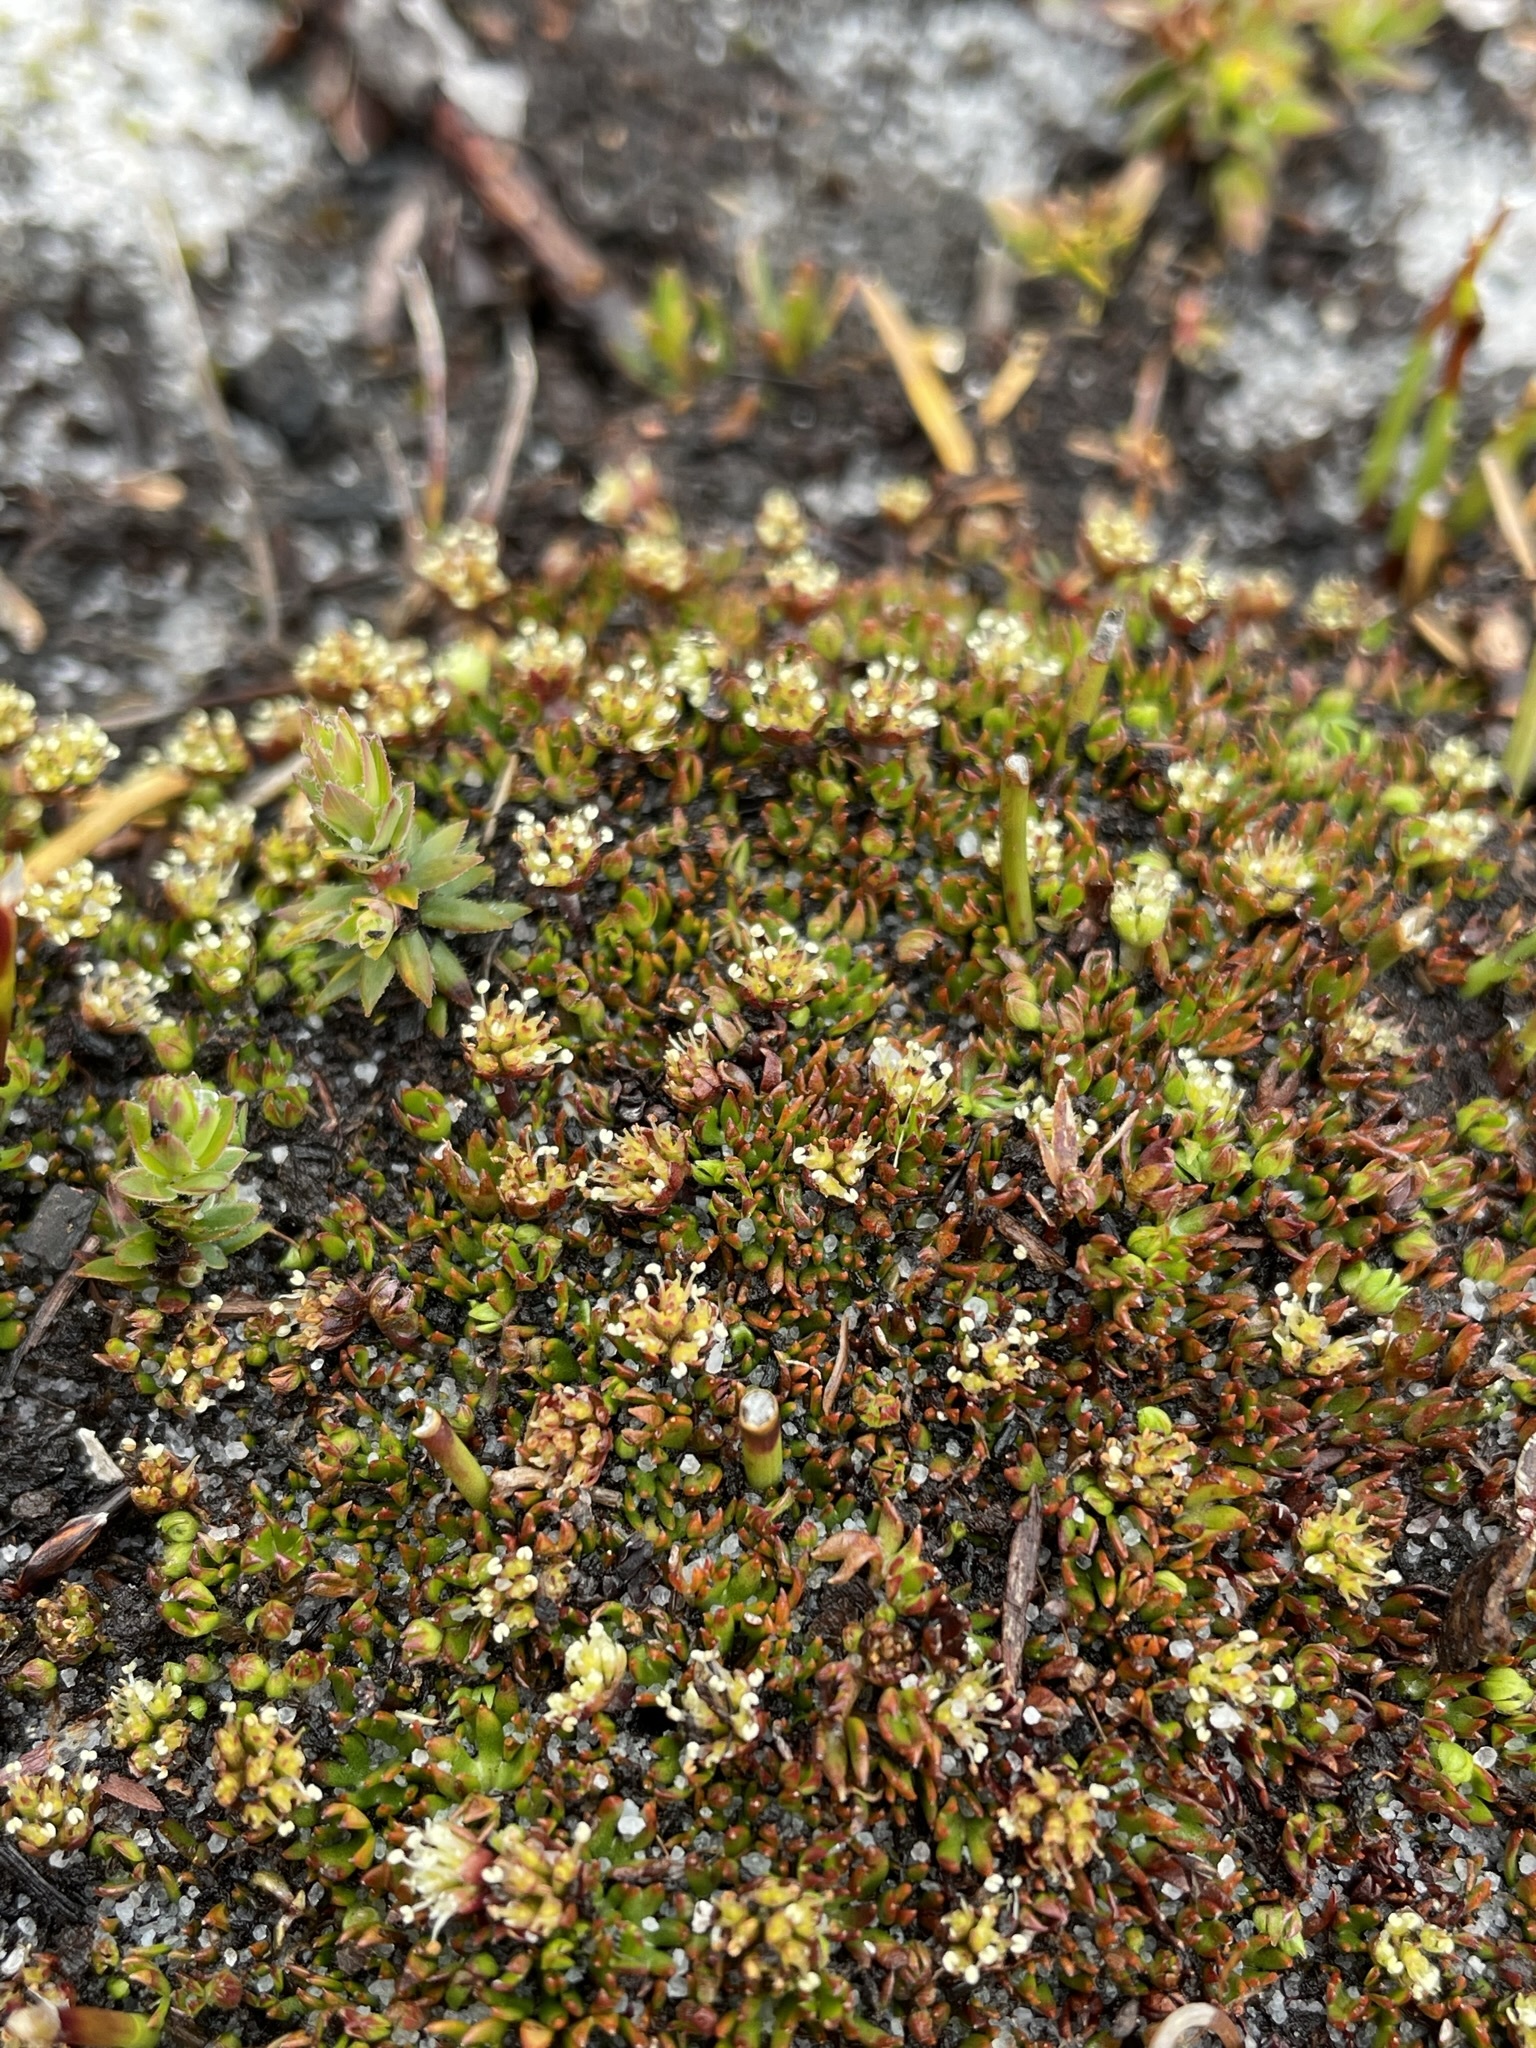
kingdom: Plantae
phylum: Tracheophyta
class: Magnoliopsida
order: Apiales
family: Apiaceae
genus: Actinotus
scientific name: Actinotus moorei
